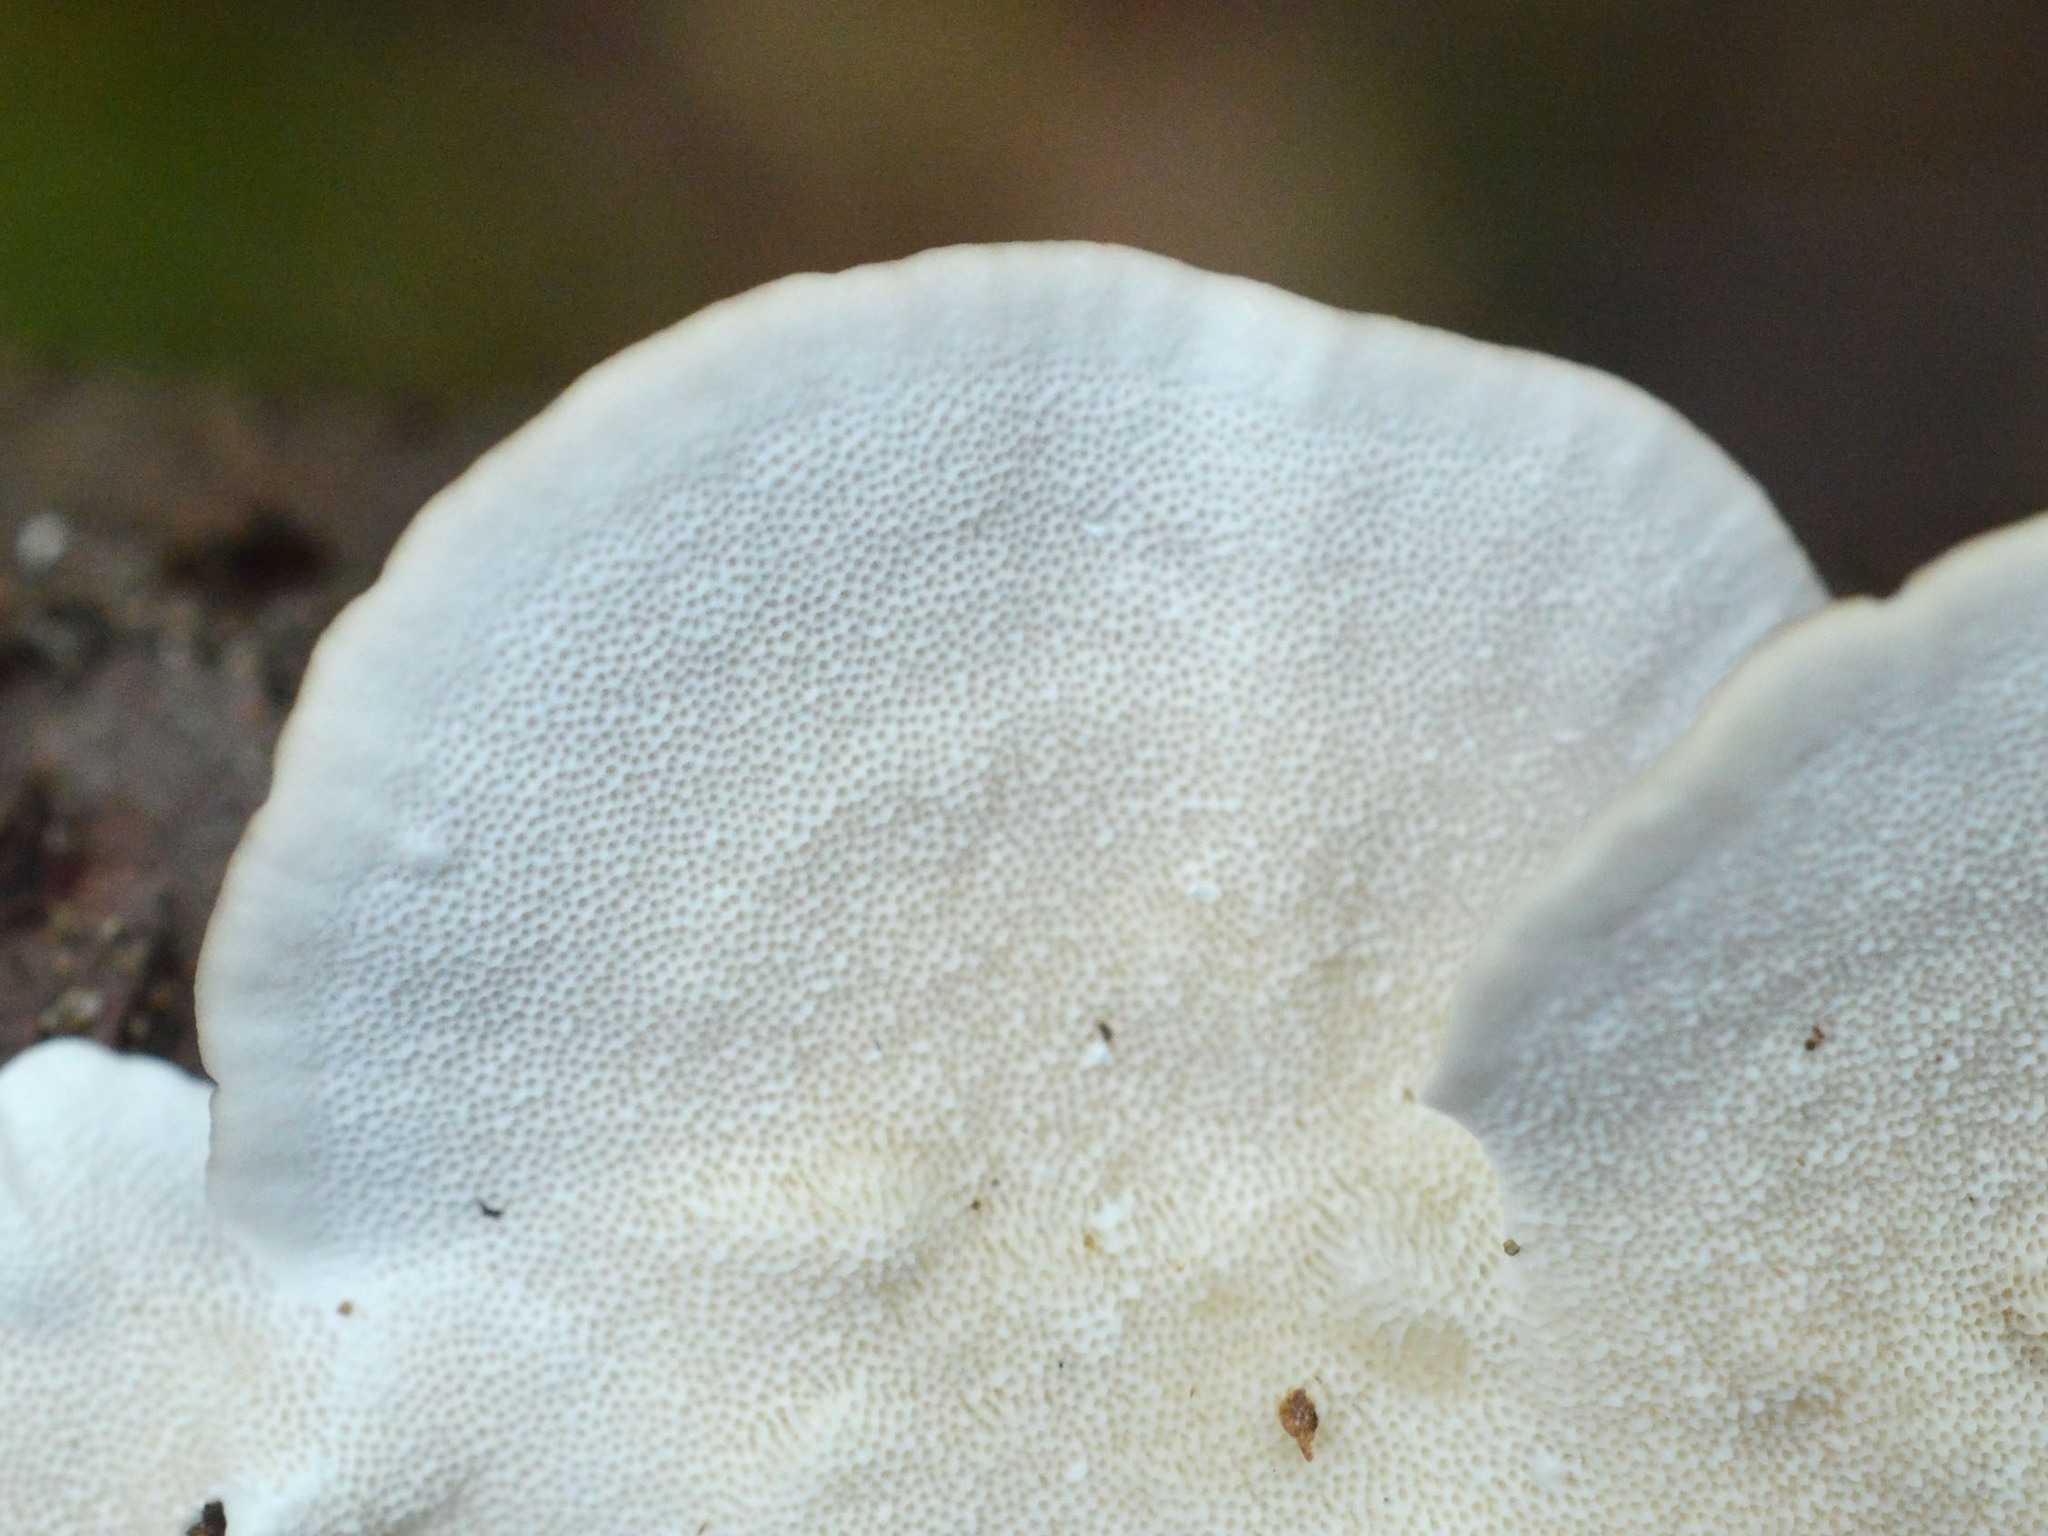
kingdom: Fungi
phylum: Basidiomycota
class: Agaricomycetes
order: Polyporales
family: Polyporaceae
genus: Trametes
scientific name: Trametes versicolor
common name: Turkeytail
